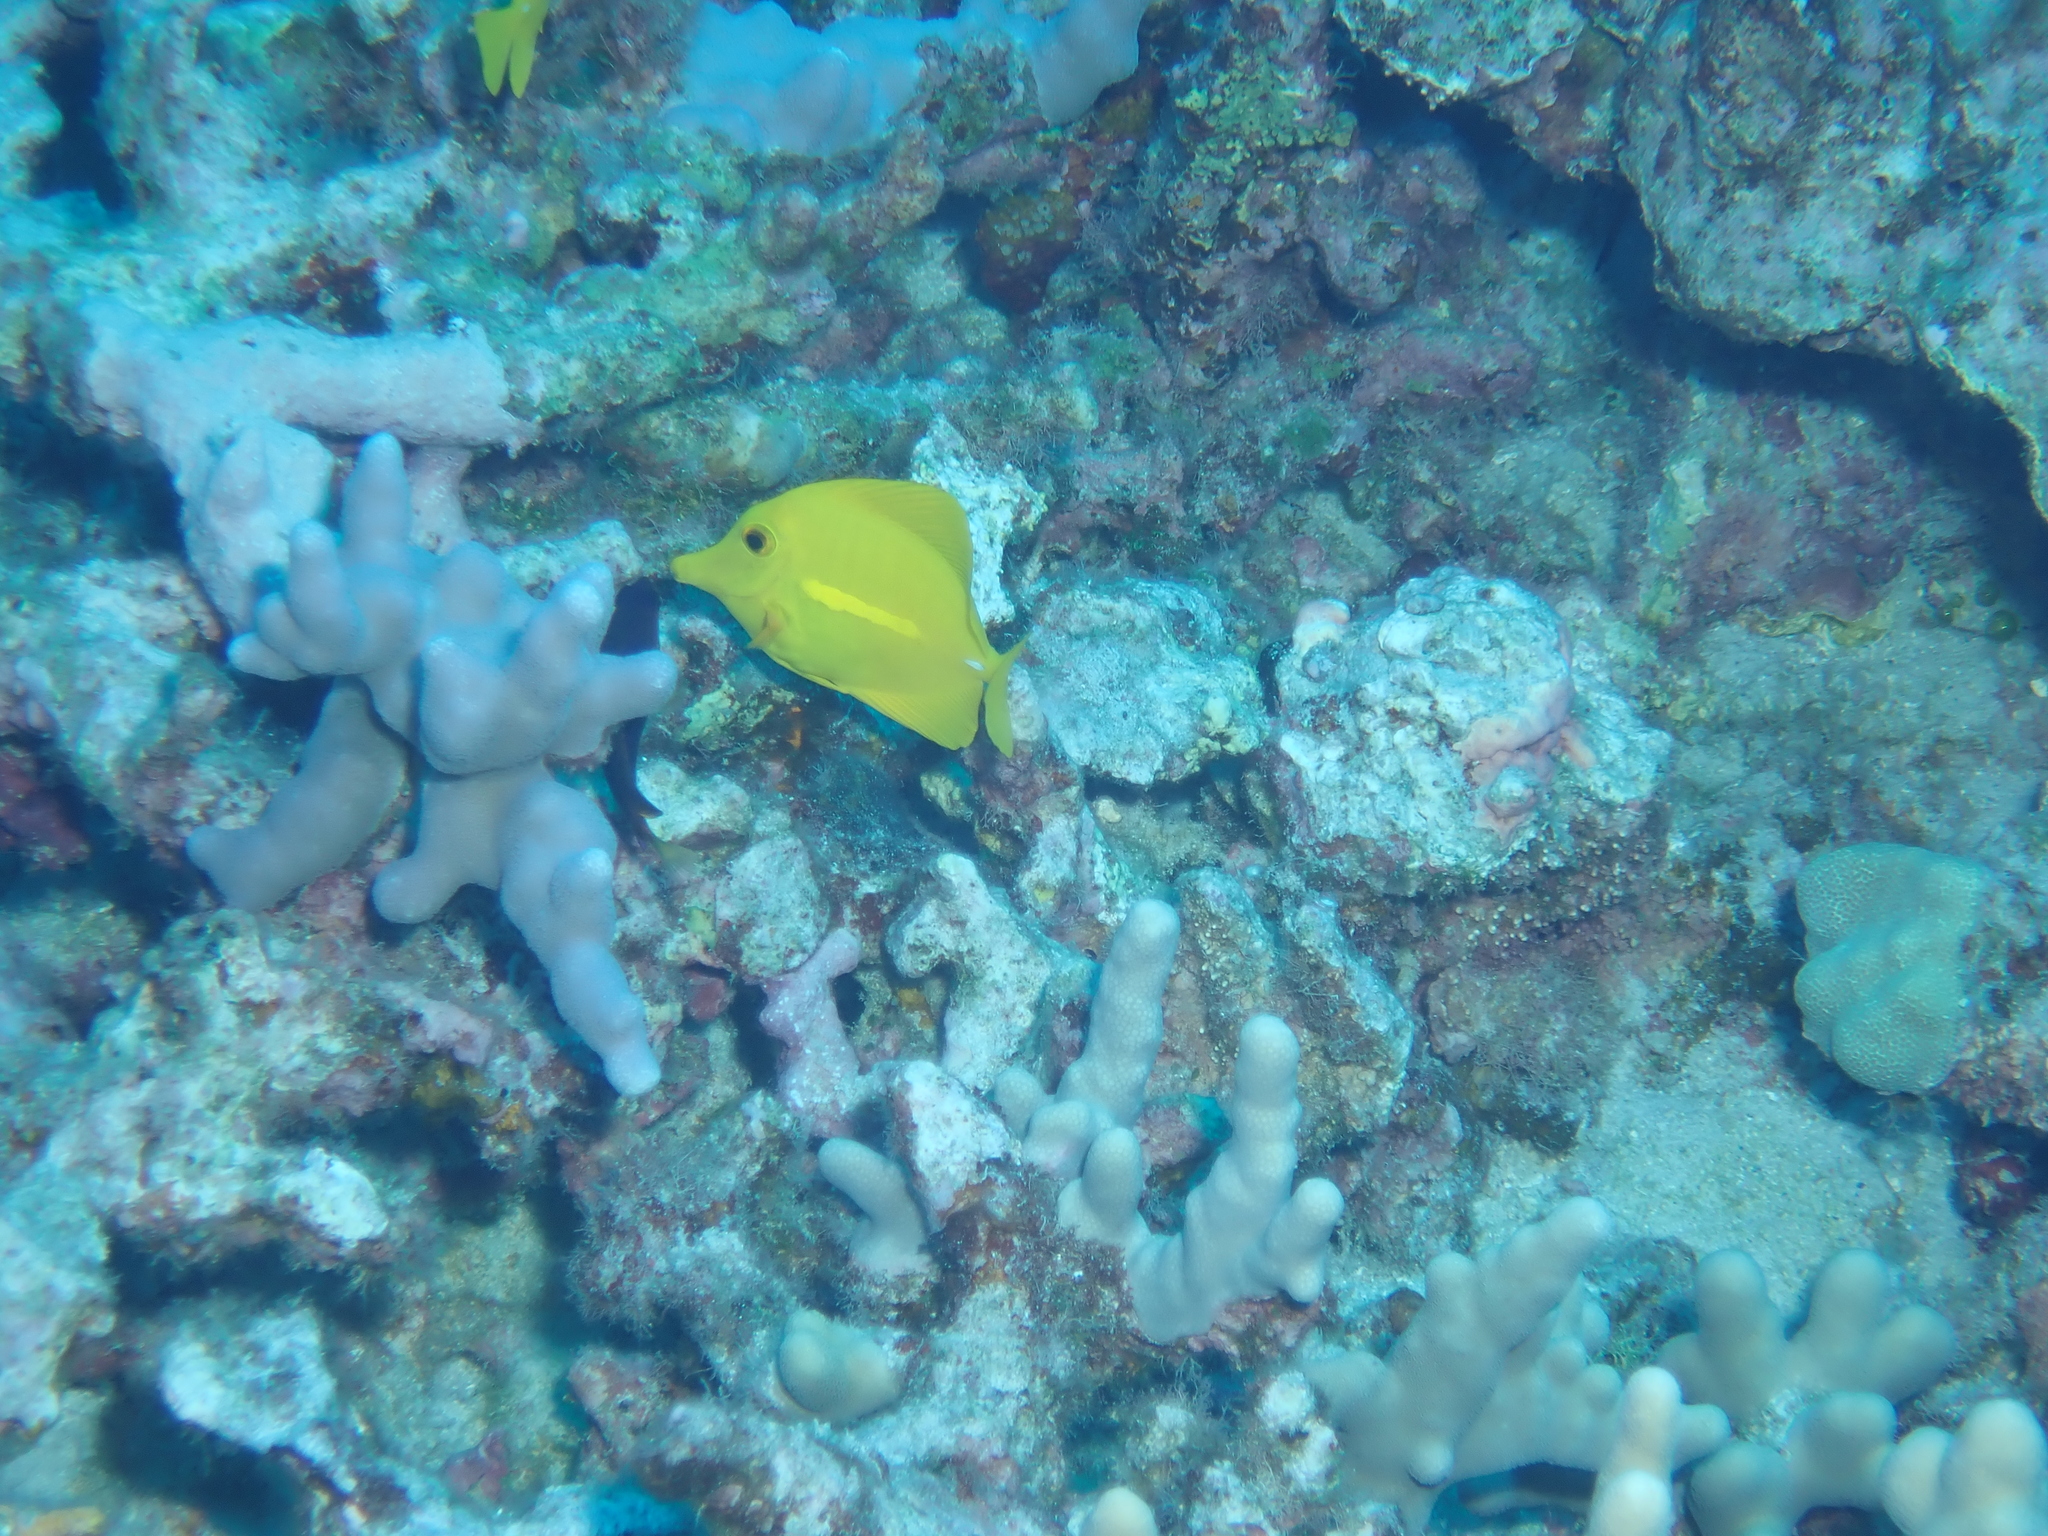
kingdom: Animalia
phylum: Chordata
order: Perciformes
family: Acanthuridae
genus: Zebrasoma
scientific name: Zebrasoma flavescens
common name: Yellow tang
